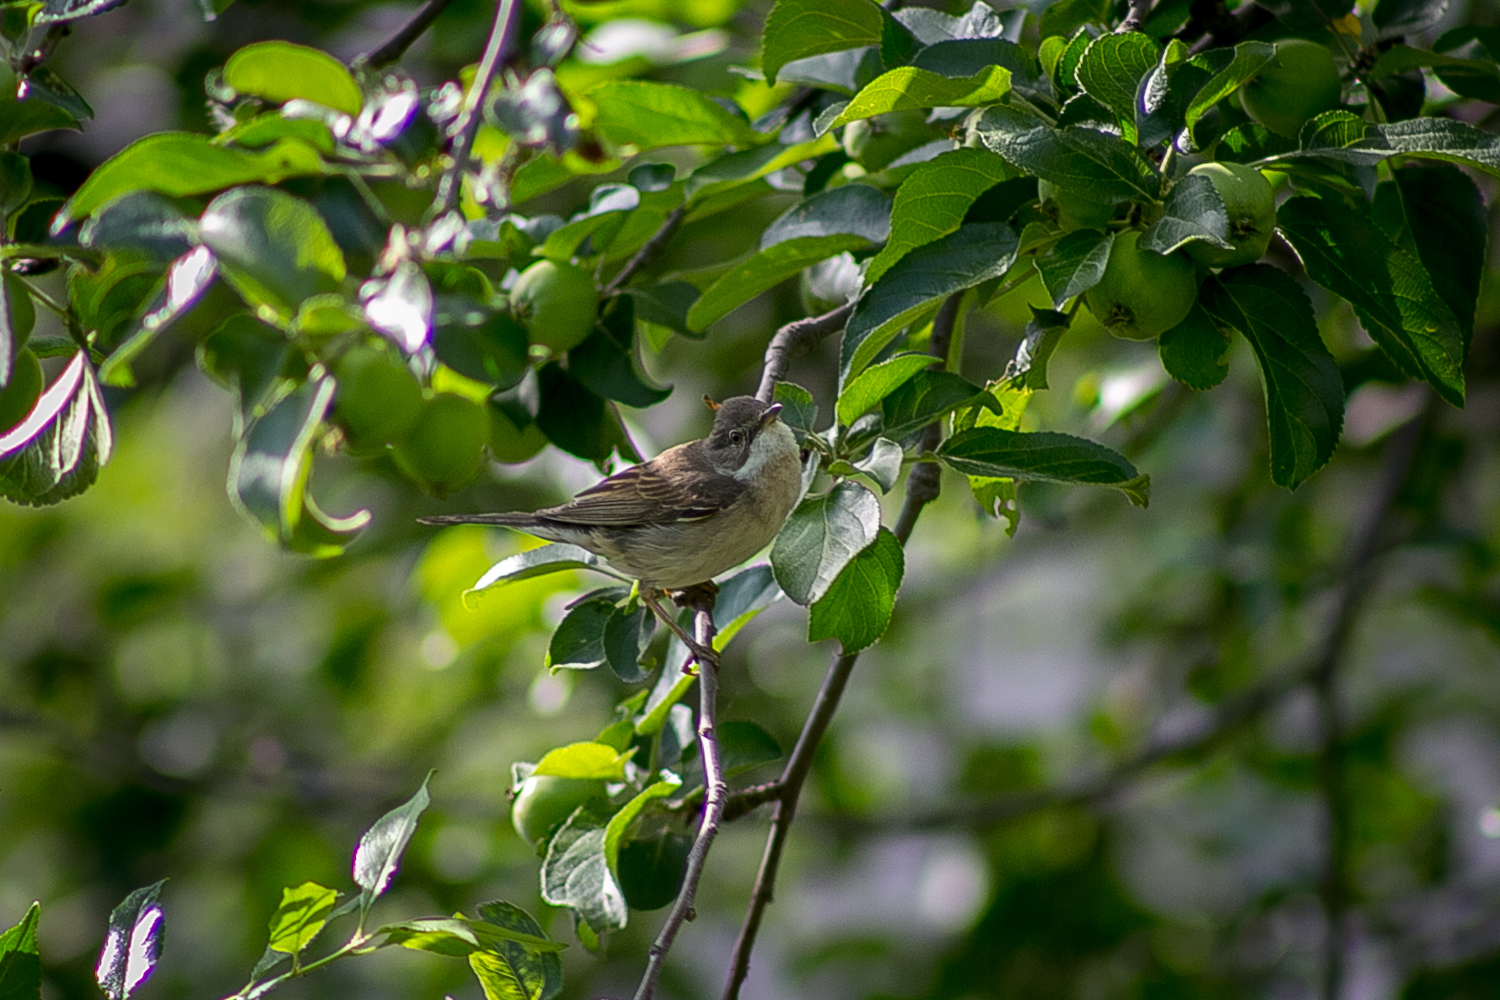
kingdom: Animalia
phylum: Chordata
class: Aves
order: Passeriformes
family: Sylviidae
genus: Sylvia
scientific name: Sylvia communis
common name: Common whitethroat
